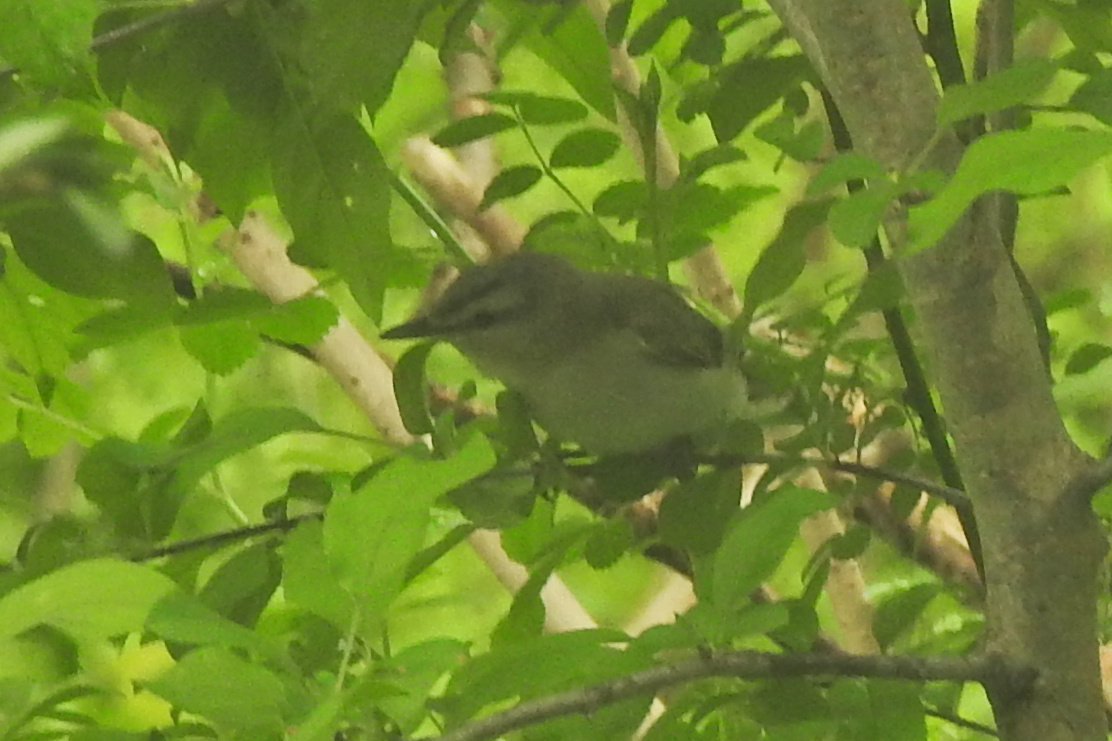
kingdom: Animalia
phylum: Chordata
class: Aves
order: Passeriformes
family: Vireonidae
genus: Vireo
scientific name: Vireo olivaceus
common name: Red-eyed vireo
